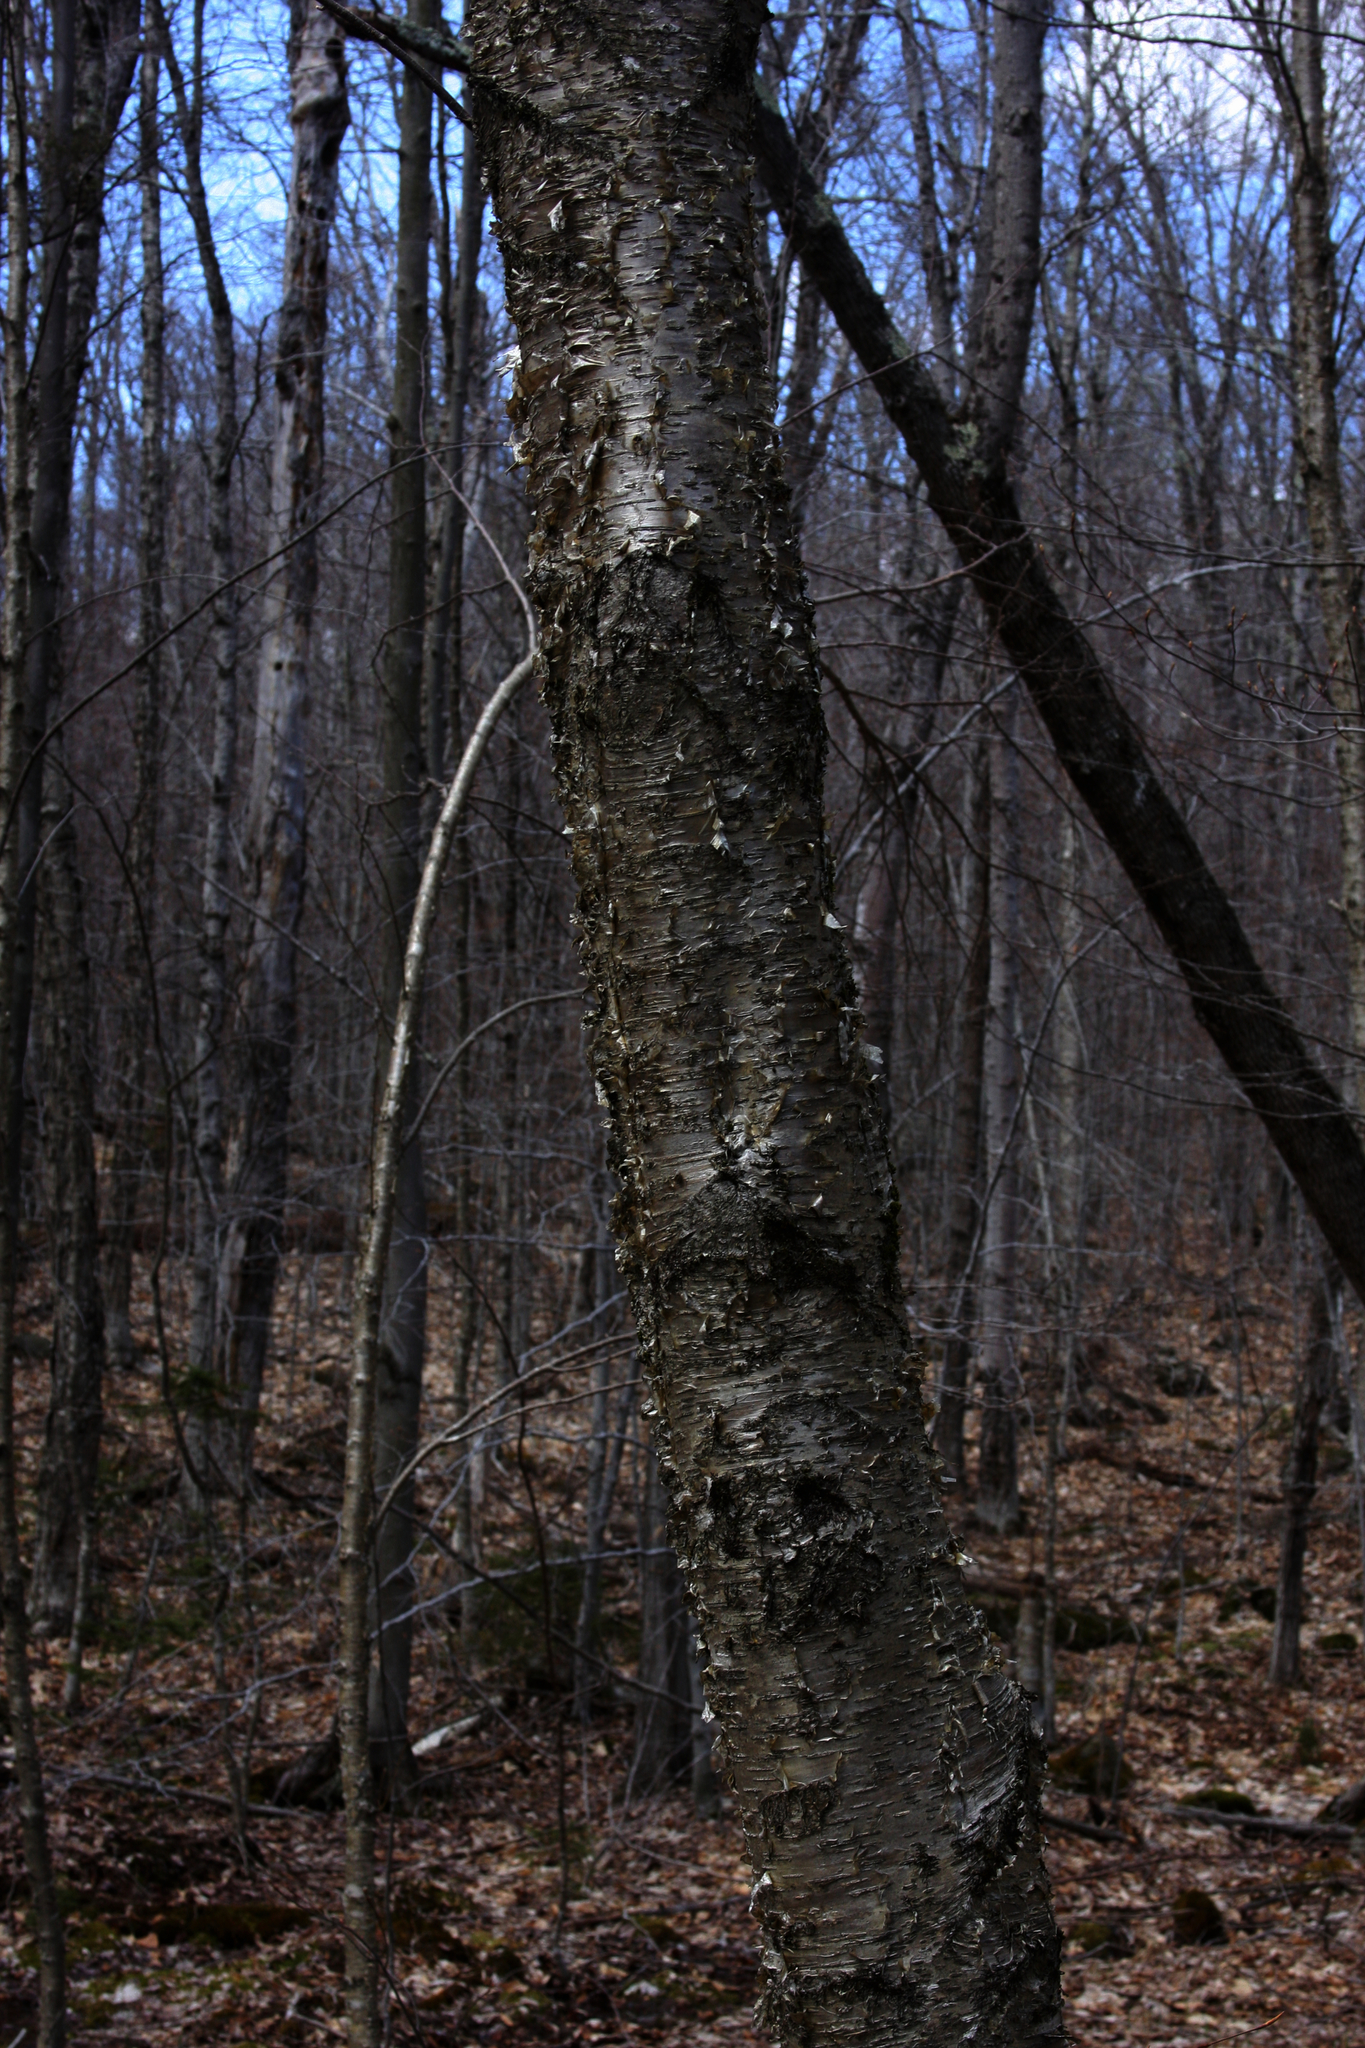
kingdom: Plantae
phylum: Tracheophyta
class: Magnoliopsida
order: Fagales
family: Betulaceae
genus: Betula
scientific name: Betula alleghaniensis
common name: Yellow birch
